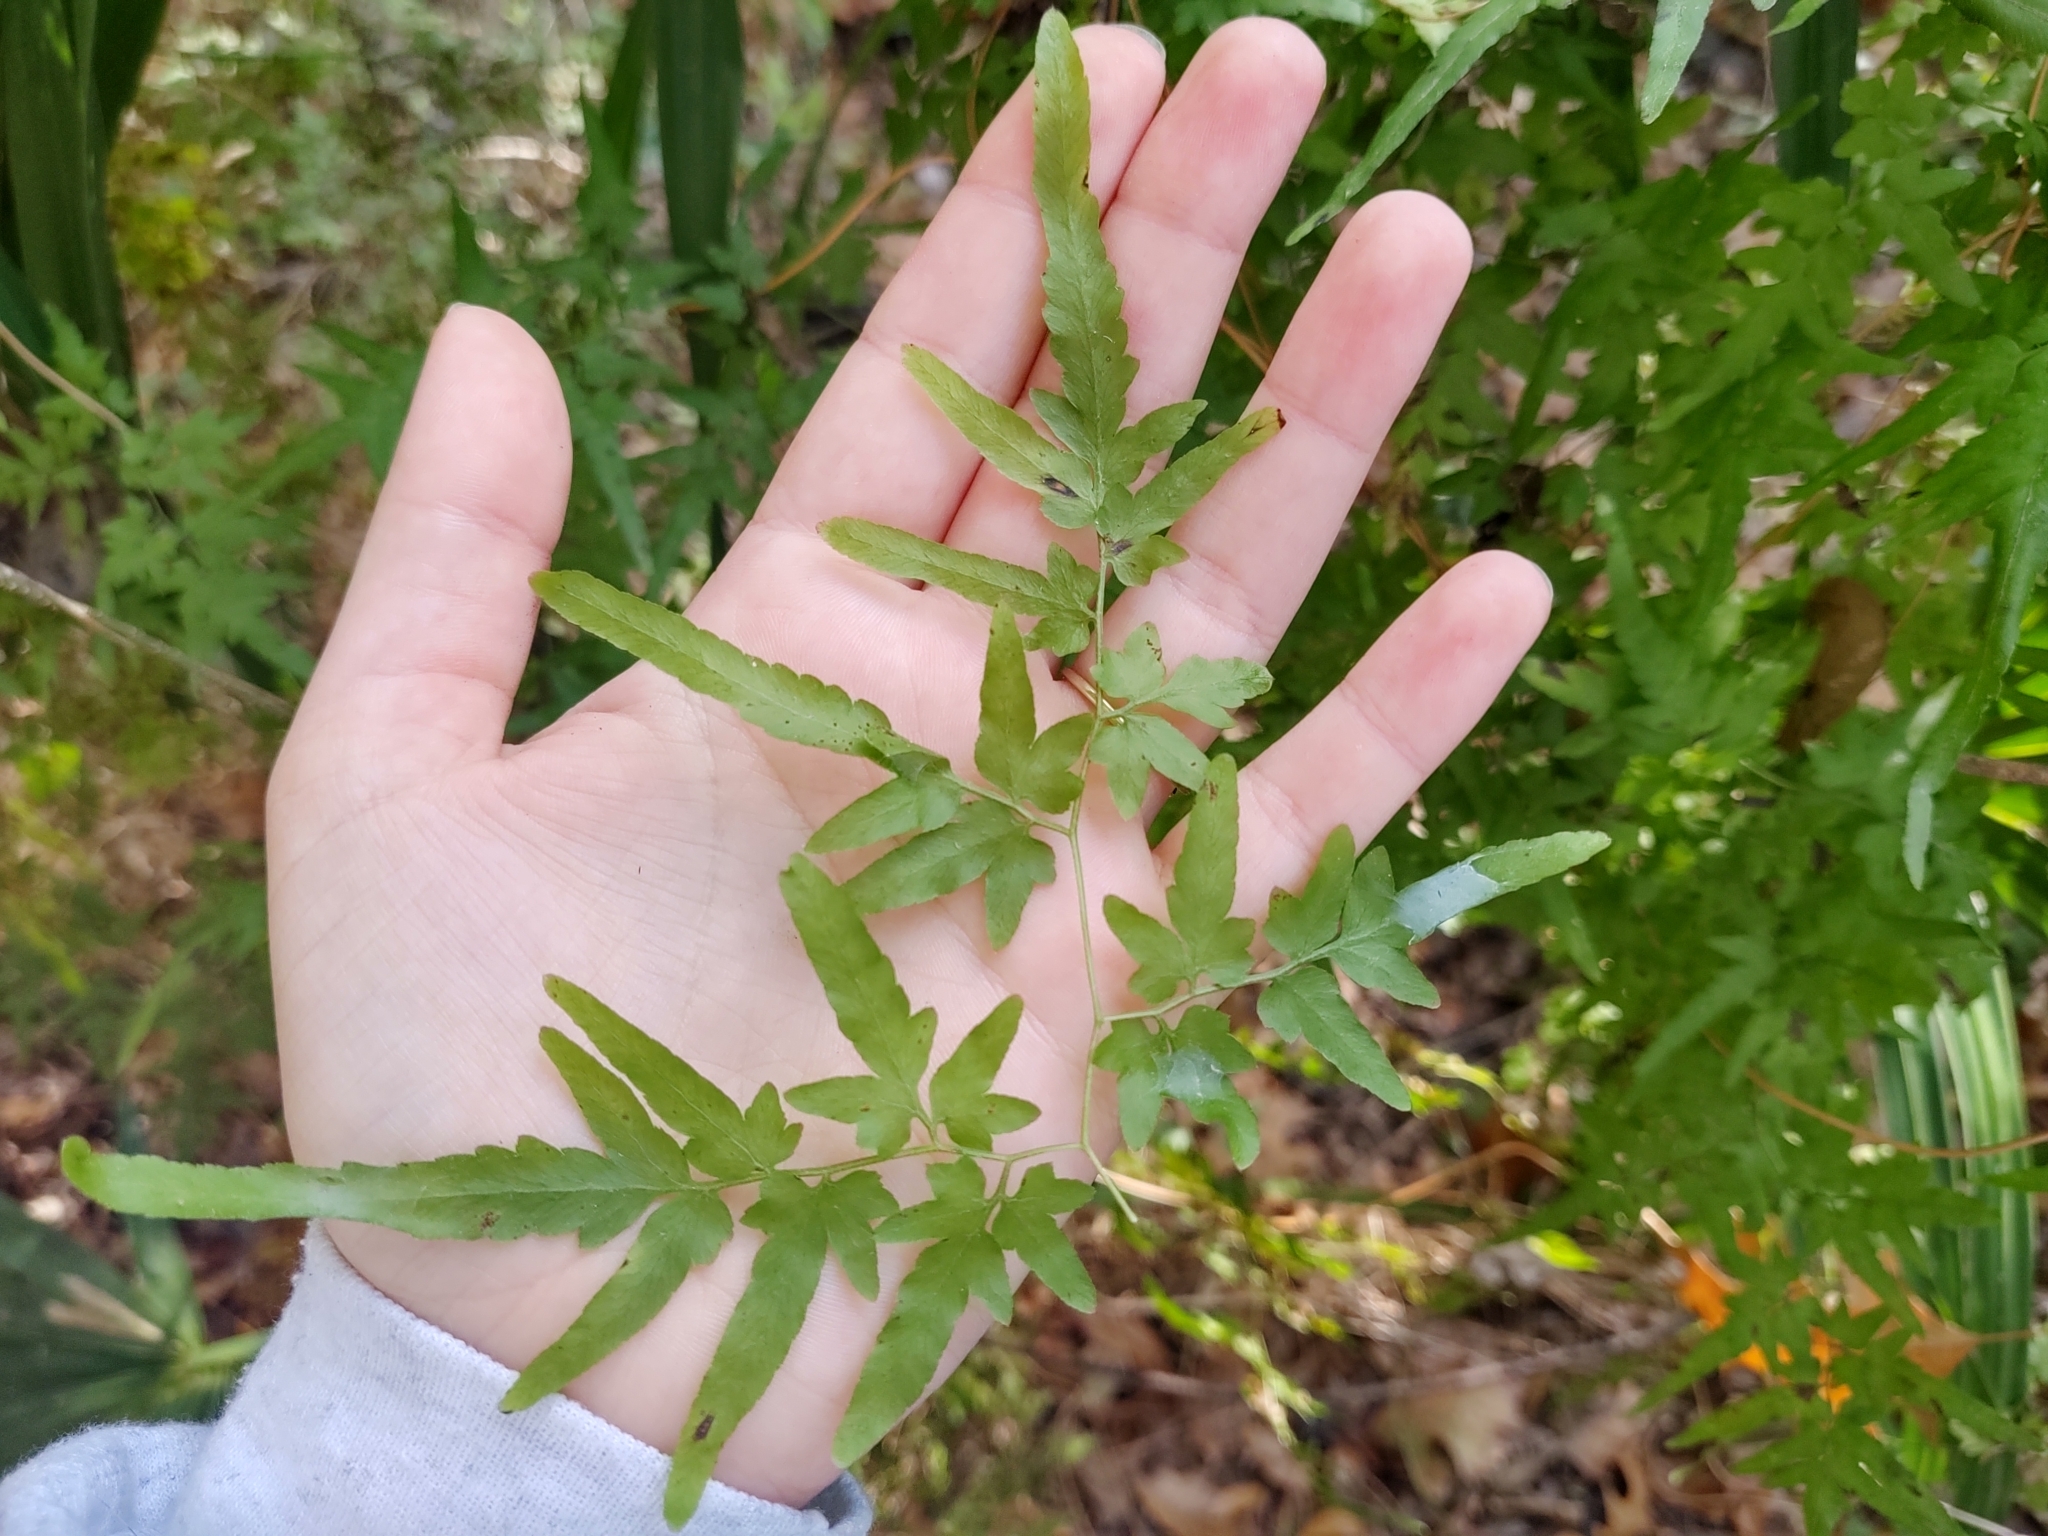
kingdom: Plantae
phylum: Tracheophyta
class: Polypodiopsida
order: Schizaeales
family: Lygodiaceae
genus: Lygodium
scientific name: Lygodium japonicum
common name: Japanese climbing fern
